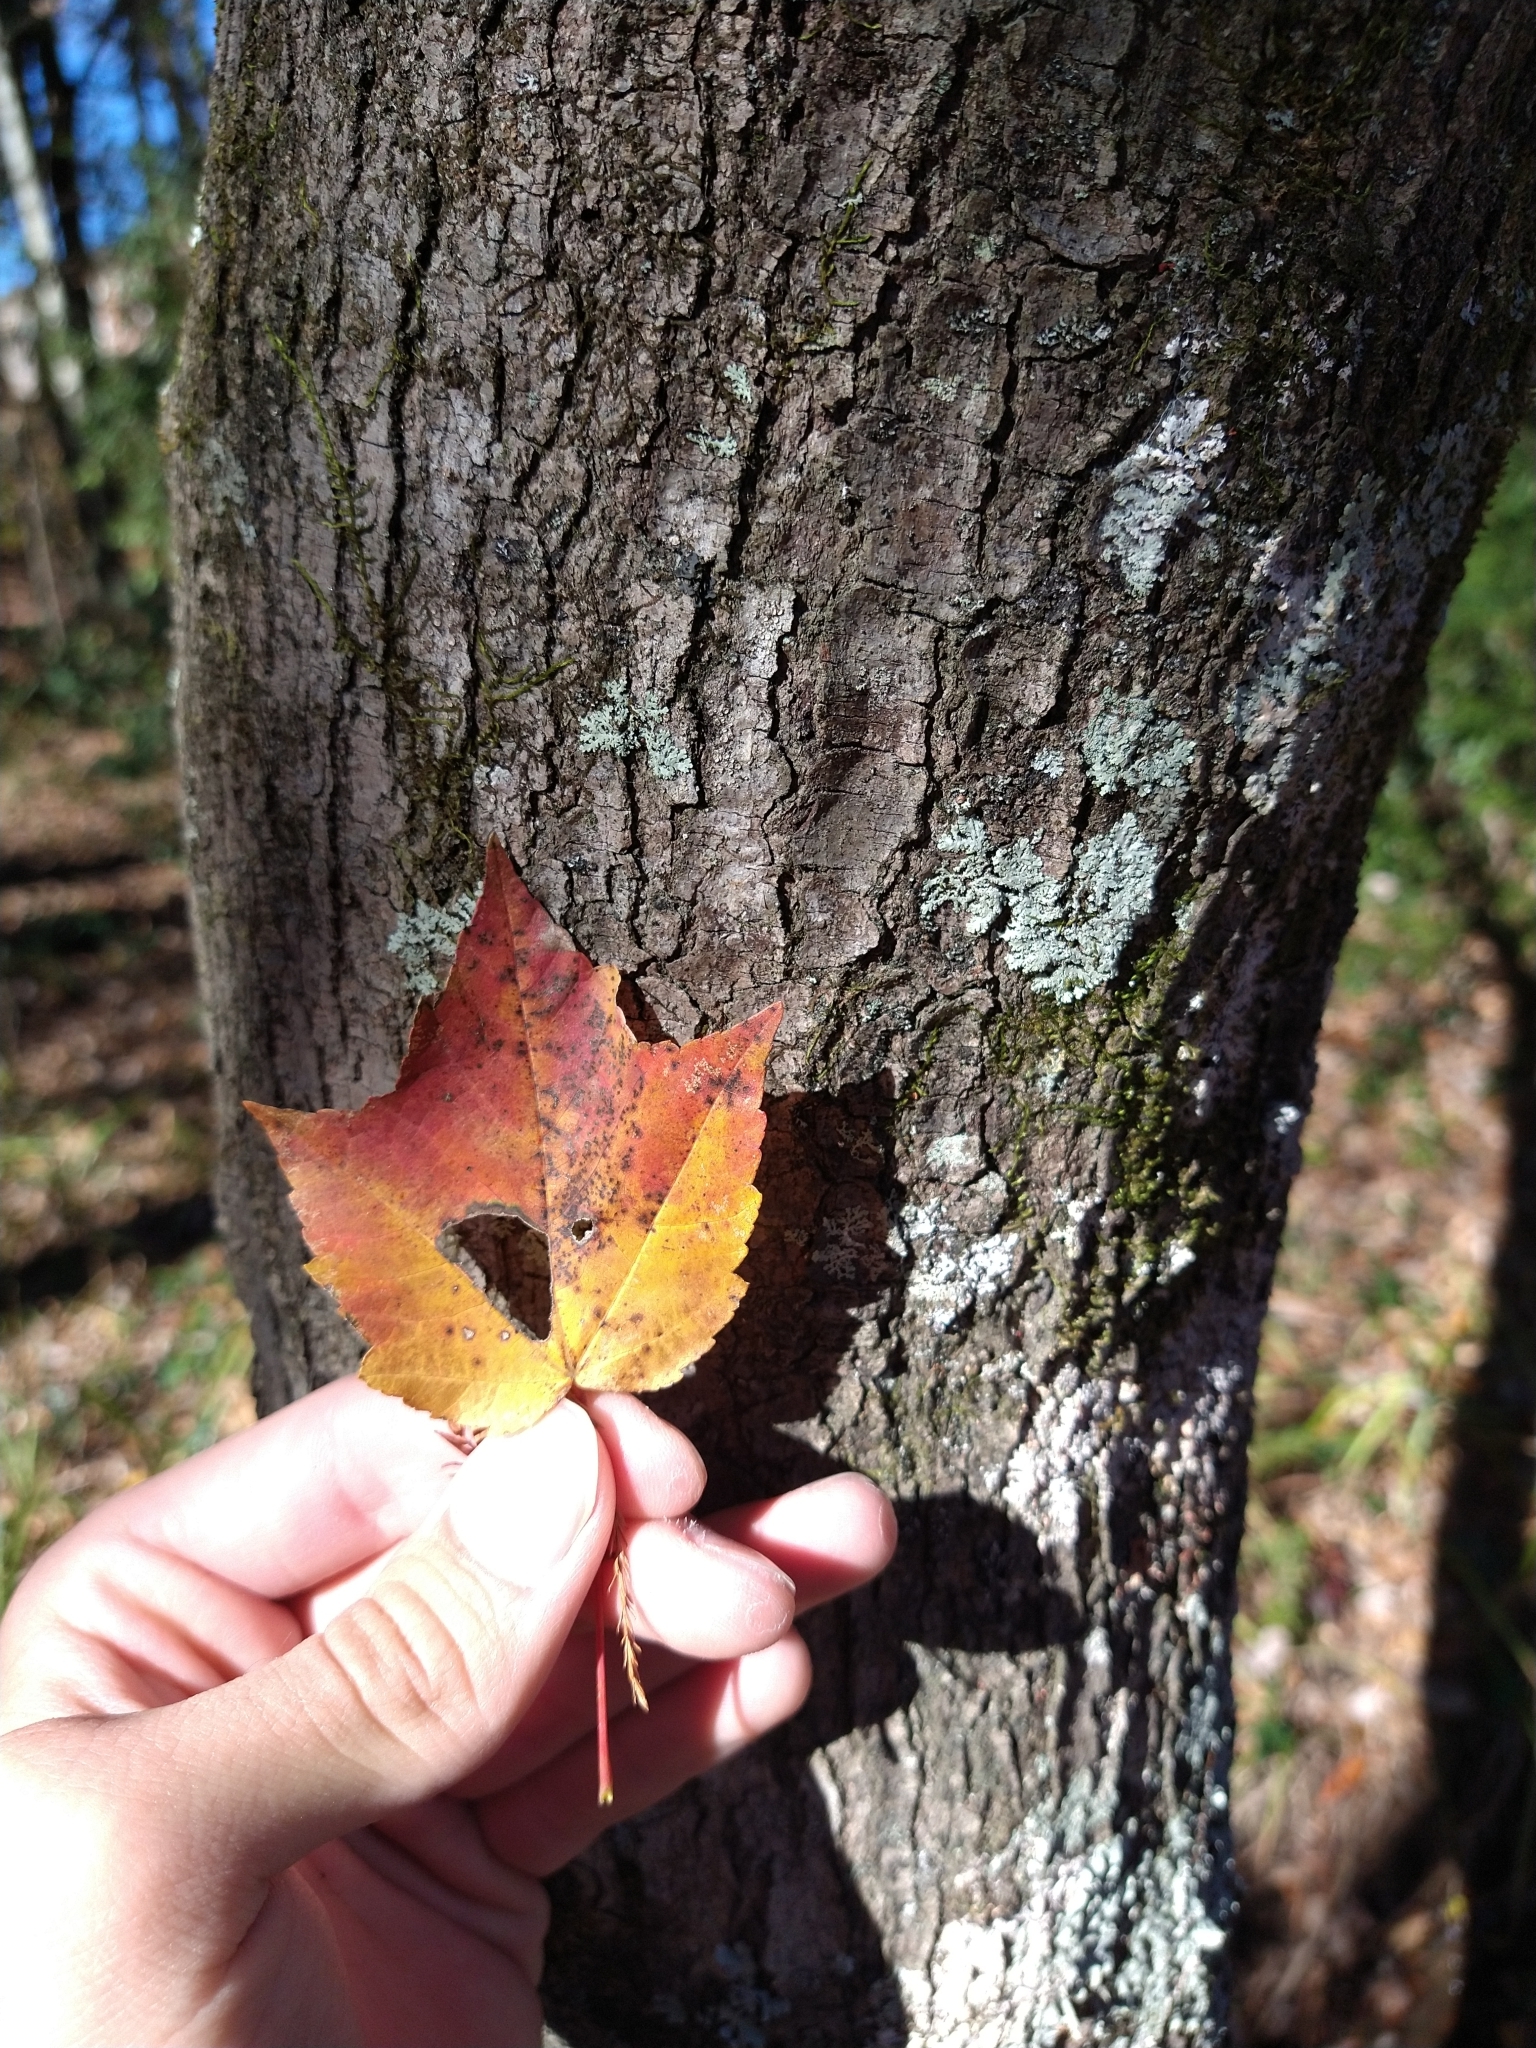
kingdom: Plantae
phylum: Tracheophyta
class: Magnoliopsida
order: Sapindales
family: Sapindaceae
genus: Acer
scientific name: Acer rubrum
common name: Red maple
